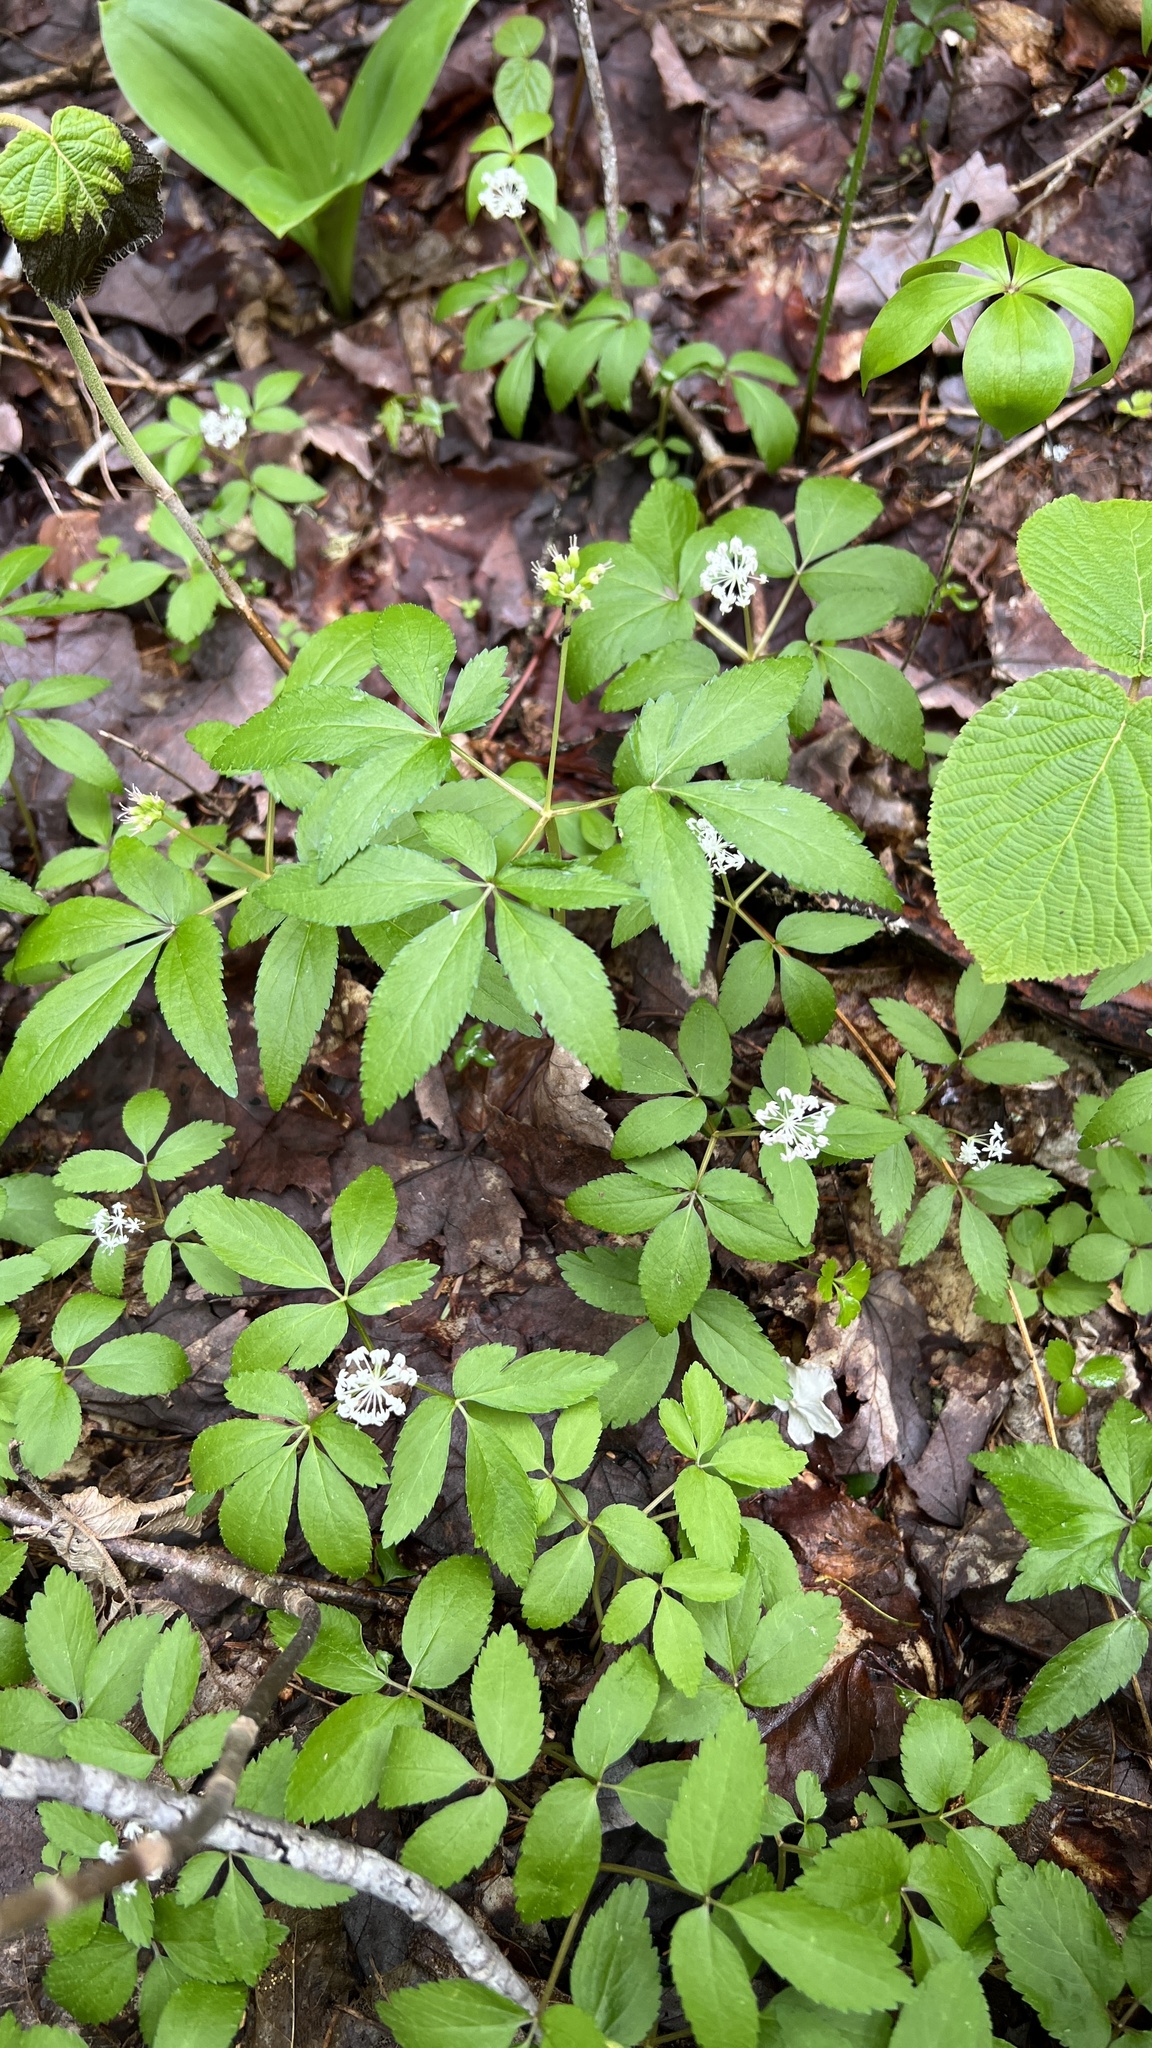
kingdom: Plantae
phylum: Tracheophyta
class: Magnoliopsida
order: Apiales
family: Araliaceae
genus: Panax
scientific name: Panax trifolius
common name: Dwarf ginseng
